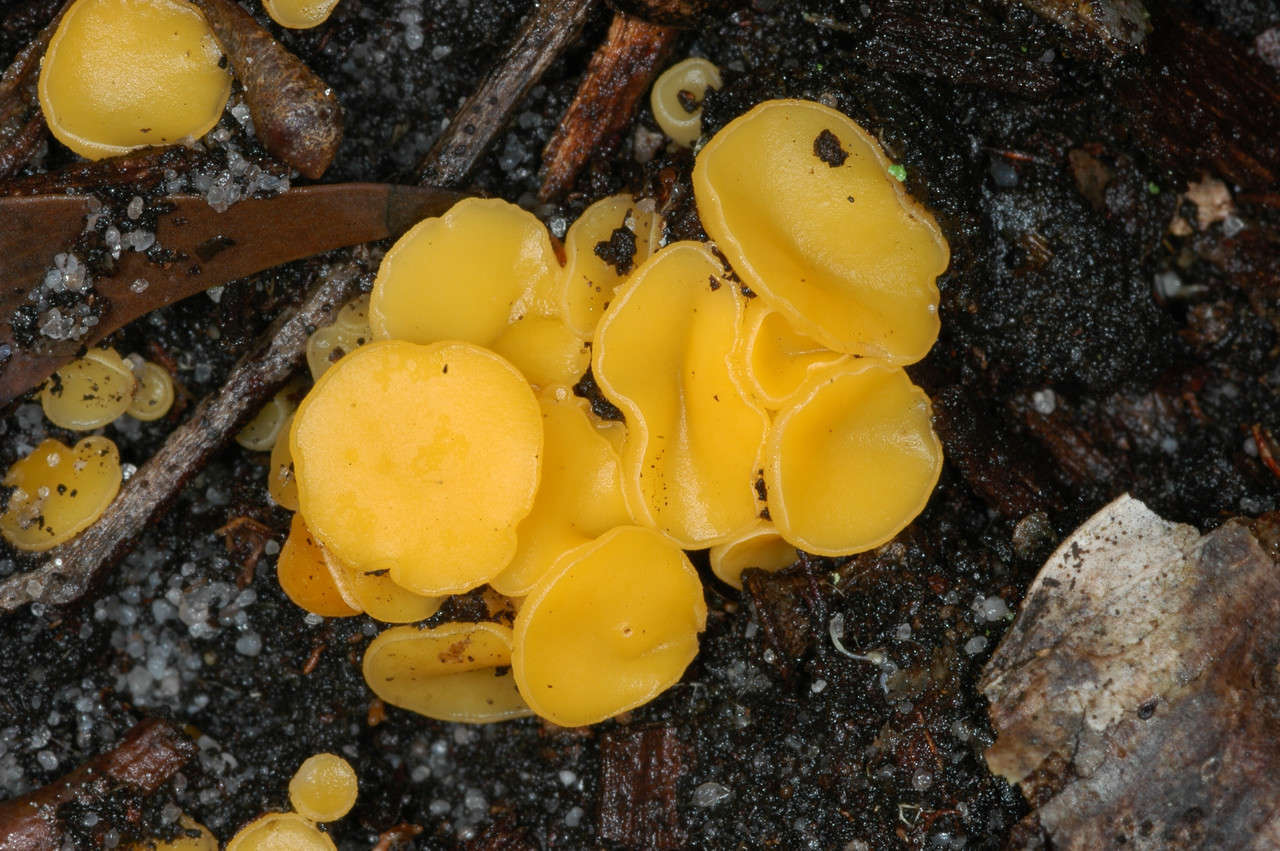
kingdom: Fungi
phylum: Ascomycota
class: Leotiomycetes
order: Helotiales
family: Helotiaceae
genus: Phaeohelotium
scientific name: Phaeohelotium baileyanum
